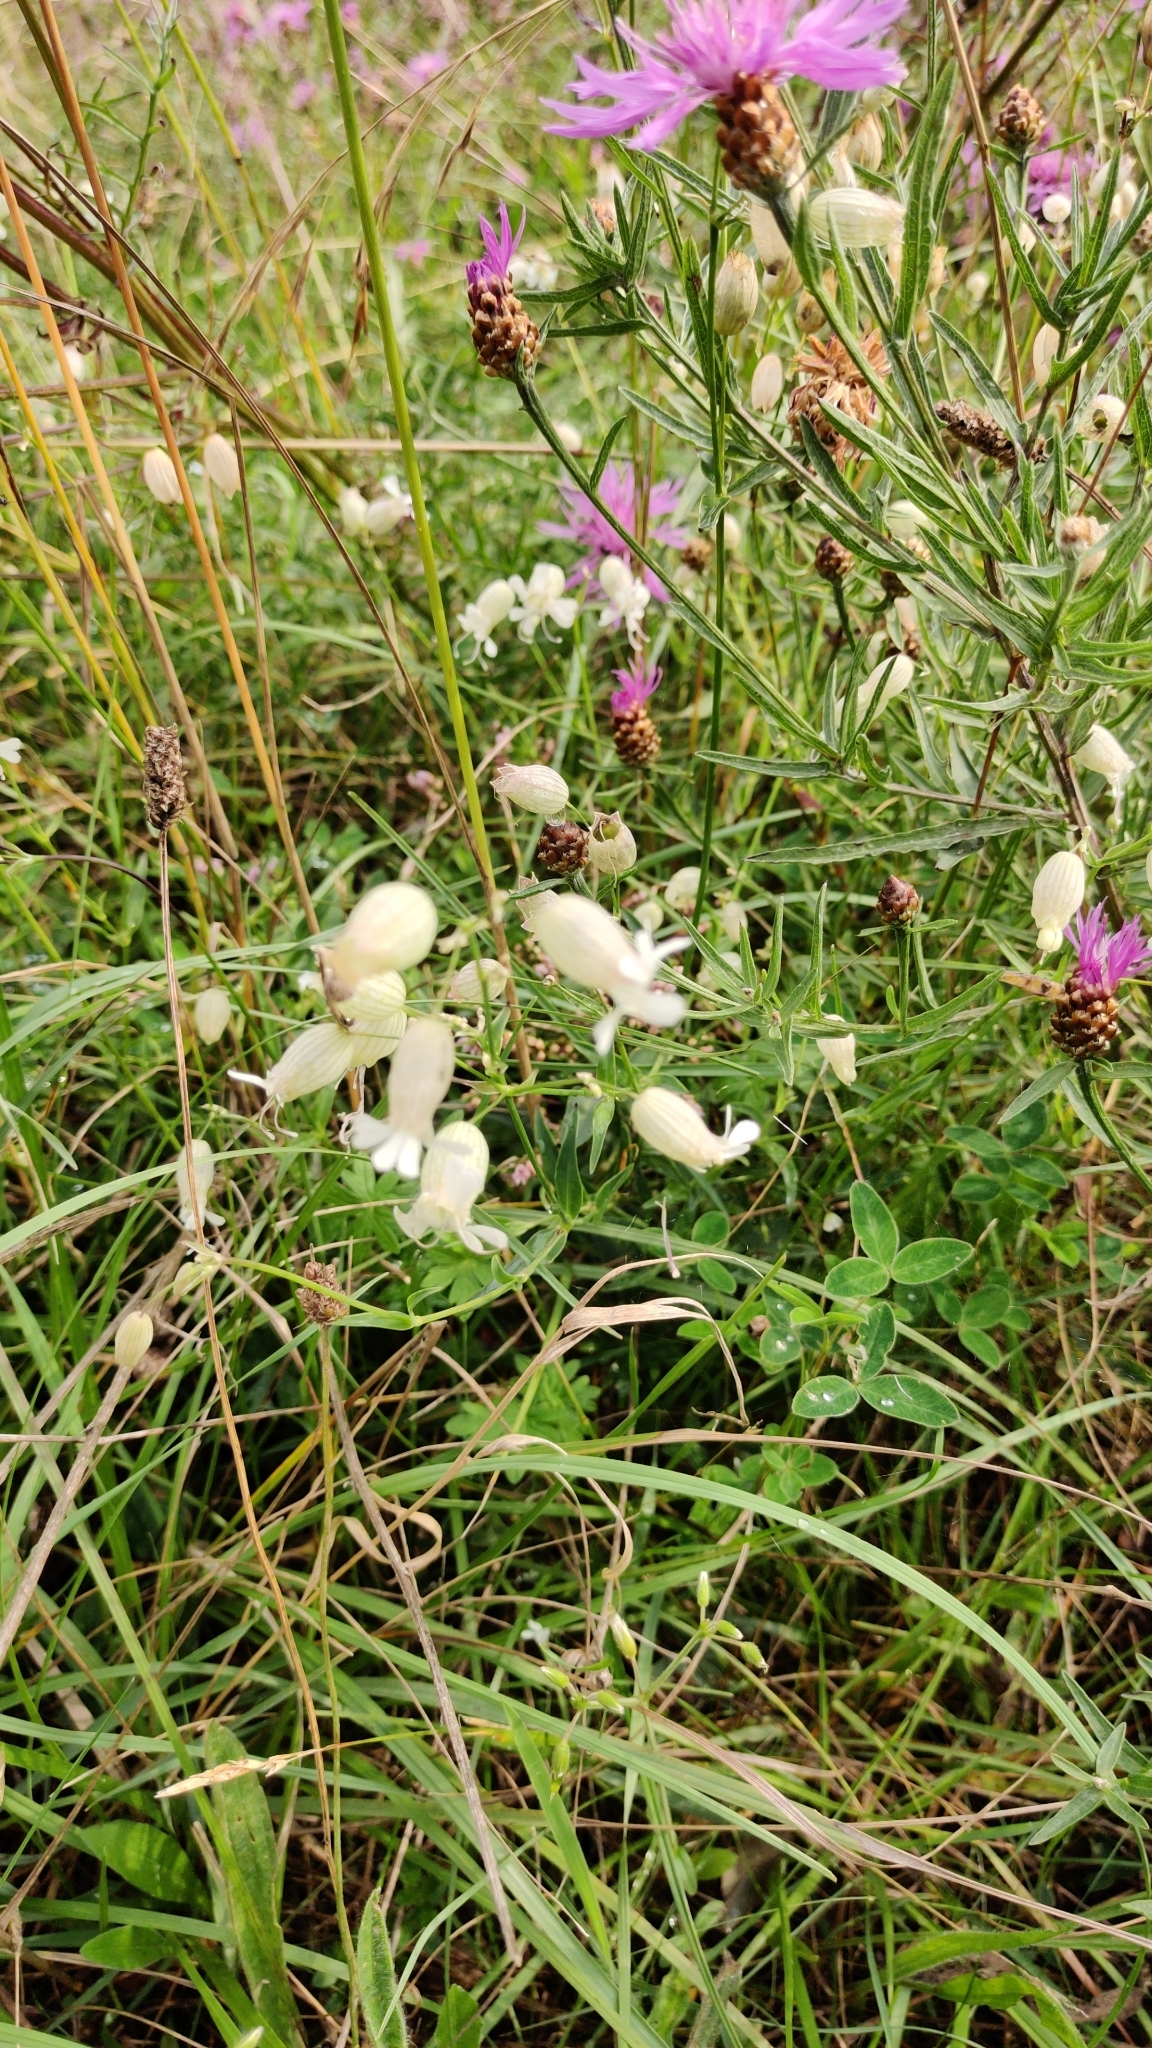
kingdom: Plantae
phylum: Tracheophyta
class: Magnoliopsida
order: Caryophyllales
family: Caryophyllaceae
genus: Silene
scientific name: Silene vulgaris
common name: Bladder campion
